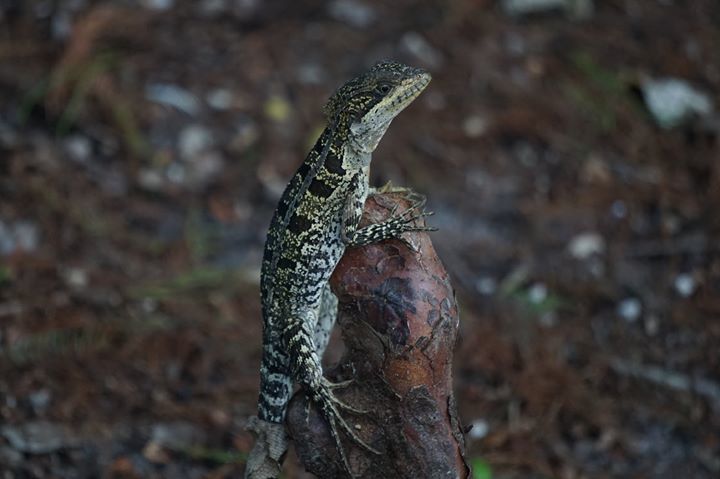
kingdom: Animalia
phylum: Chordata
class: Squamata
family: Corytophanidae
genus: Basiliscus
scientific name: Basiliscus vittatus
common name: Brown basilisk
